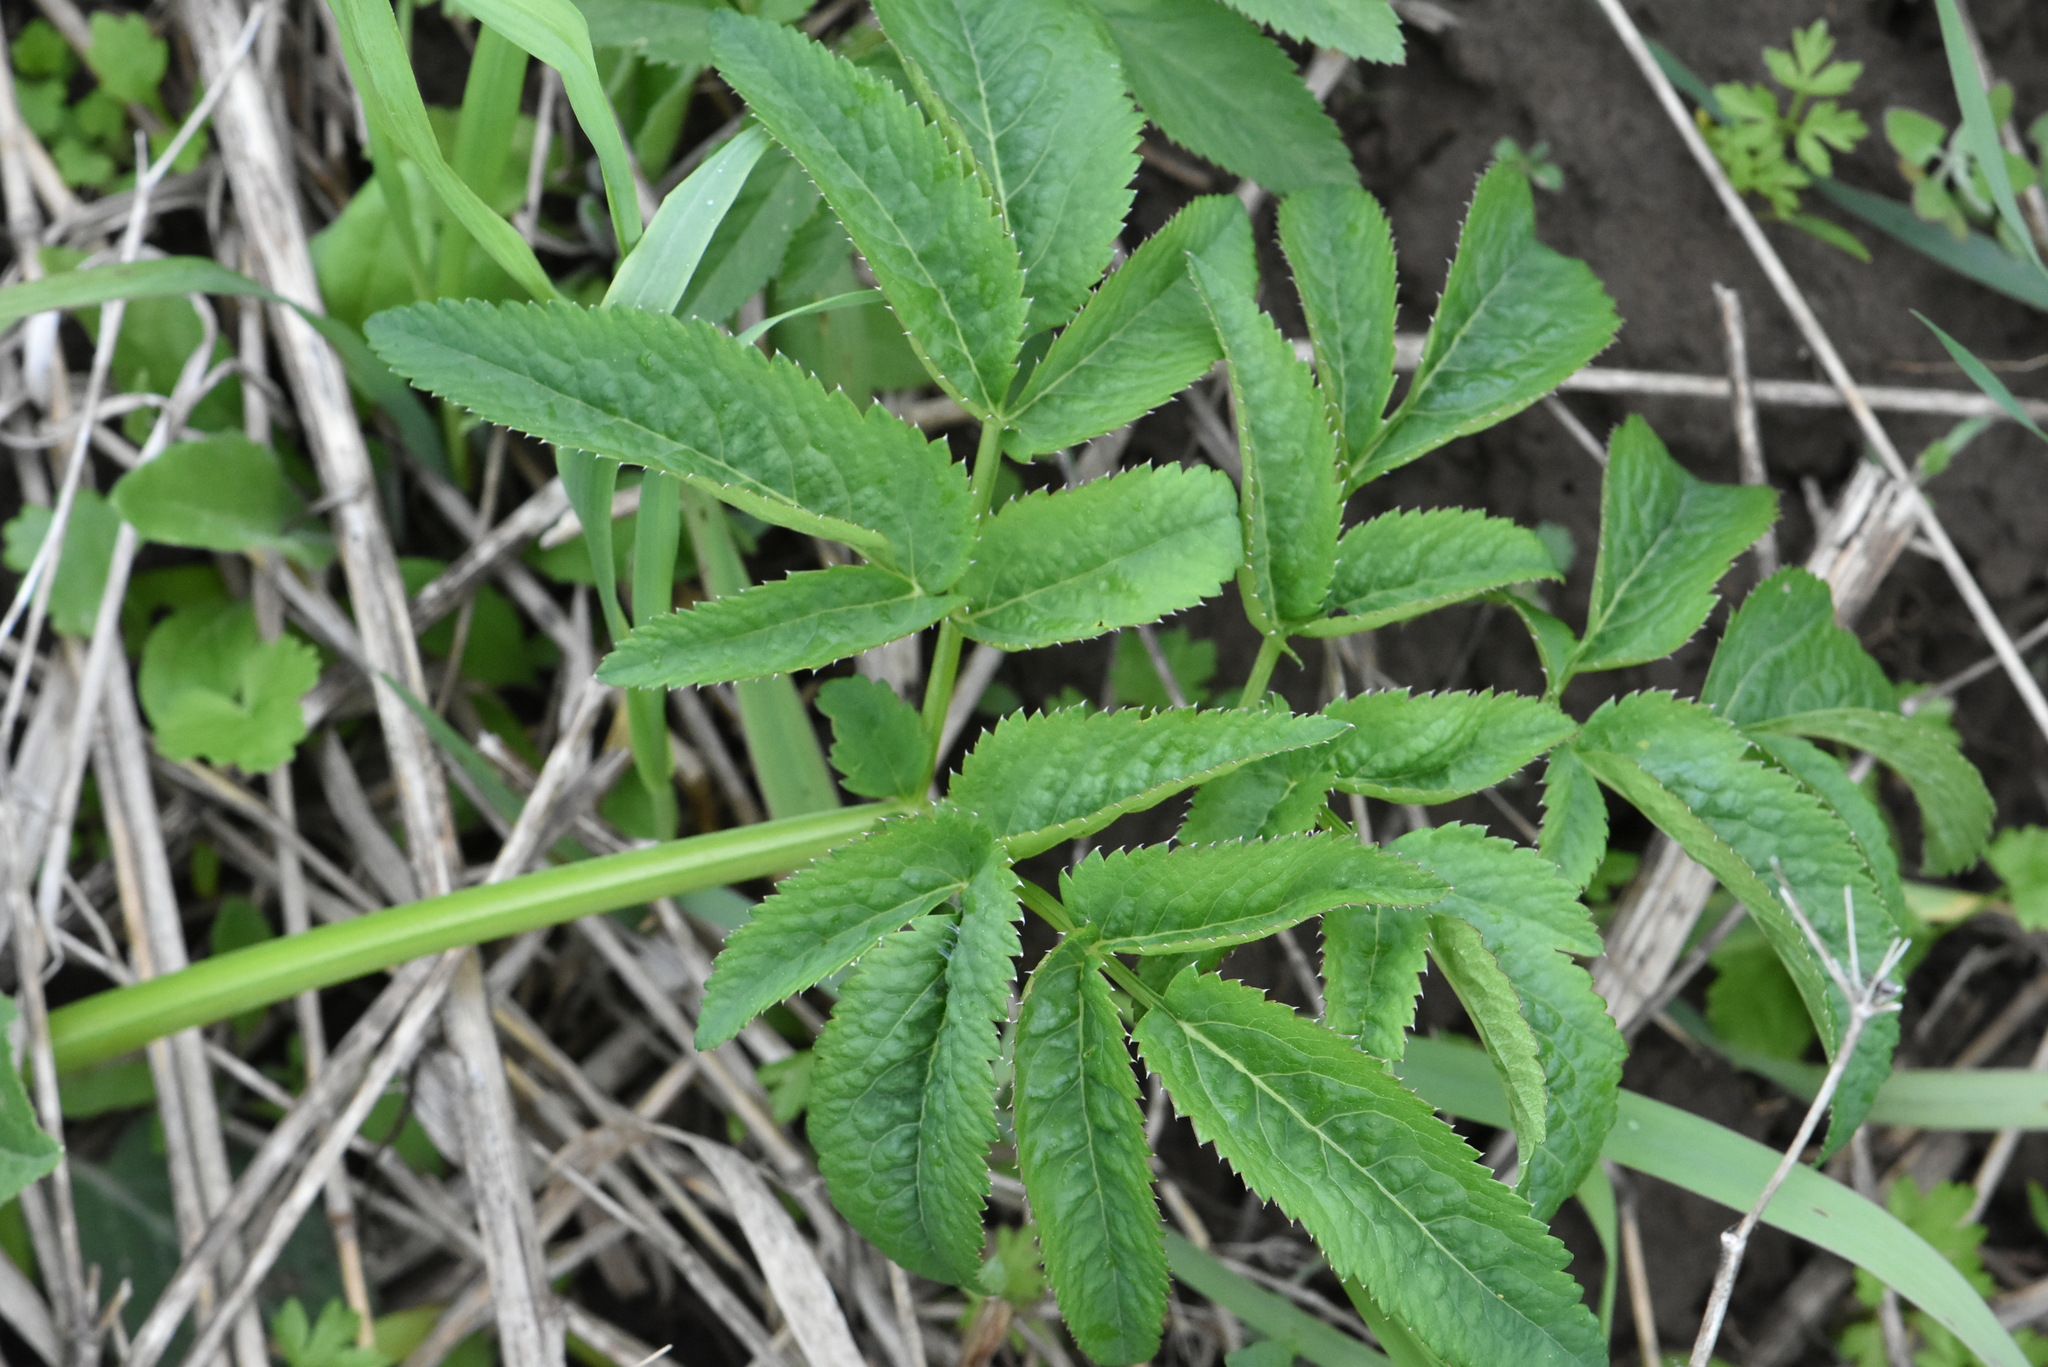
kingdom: Plantae
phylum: Tracheophyta
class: Magnoliopsida
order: Apiales
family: Apiaceae
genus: Angelica
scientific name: Angelica sylvestris
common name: Wild angelica
